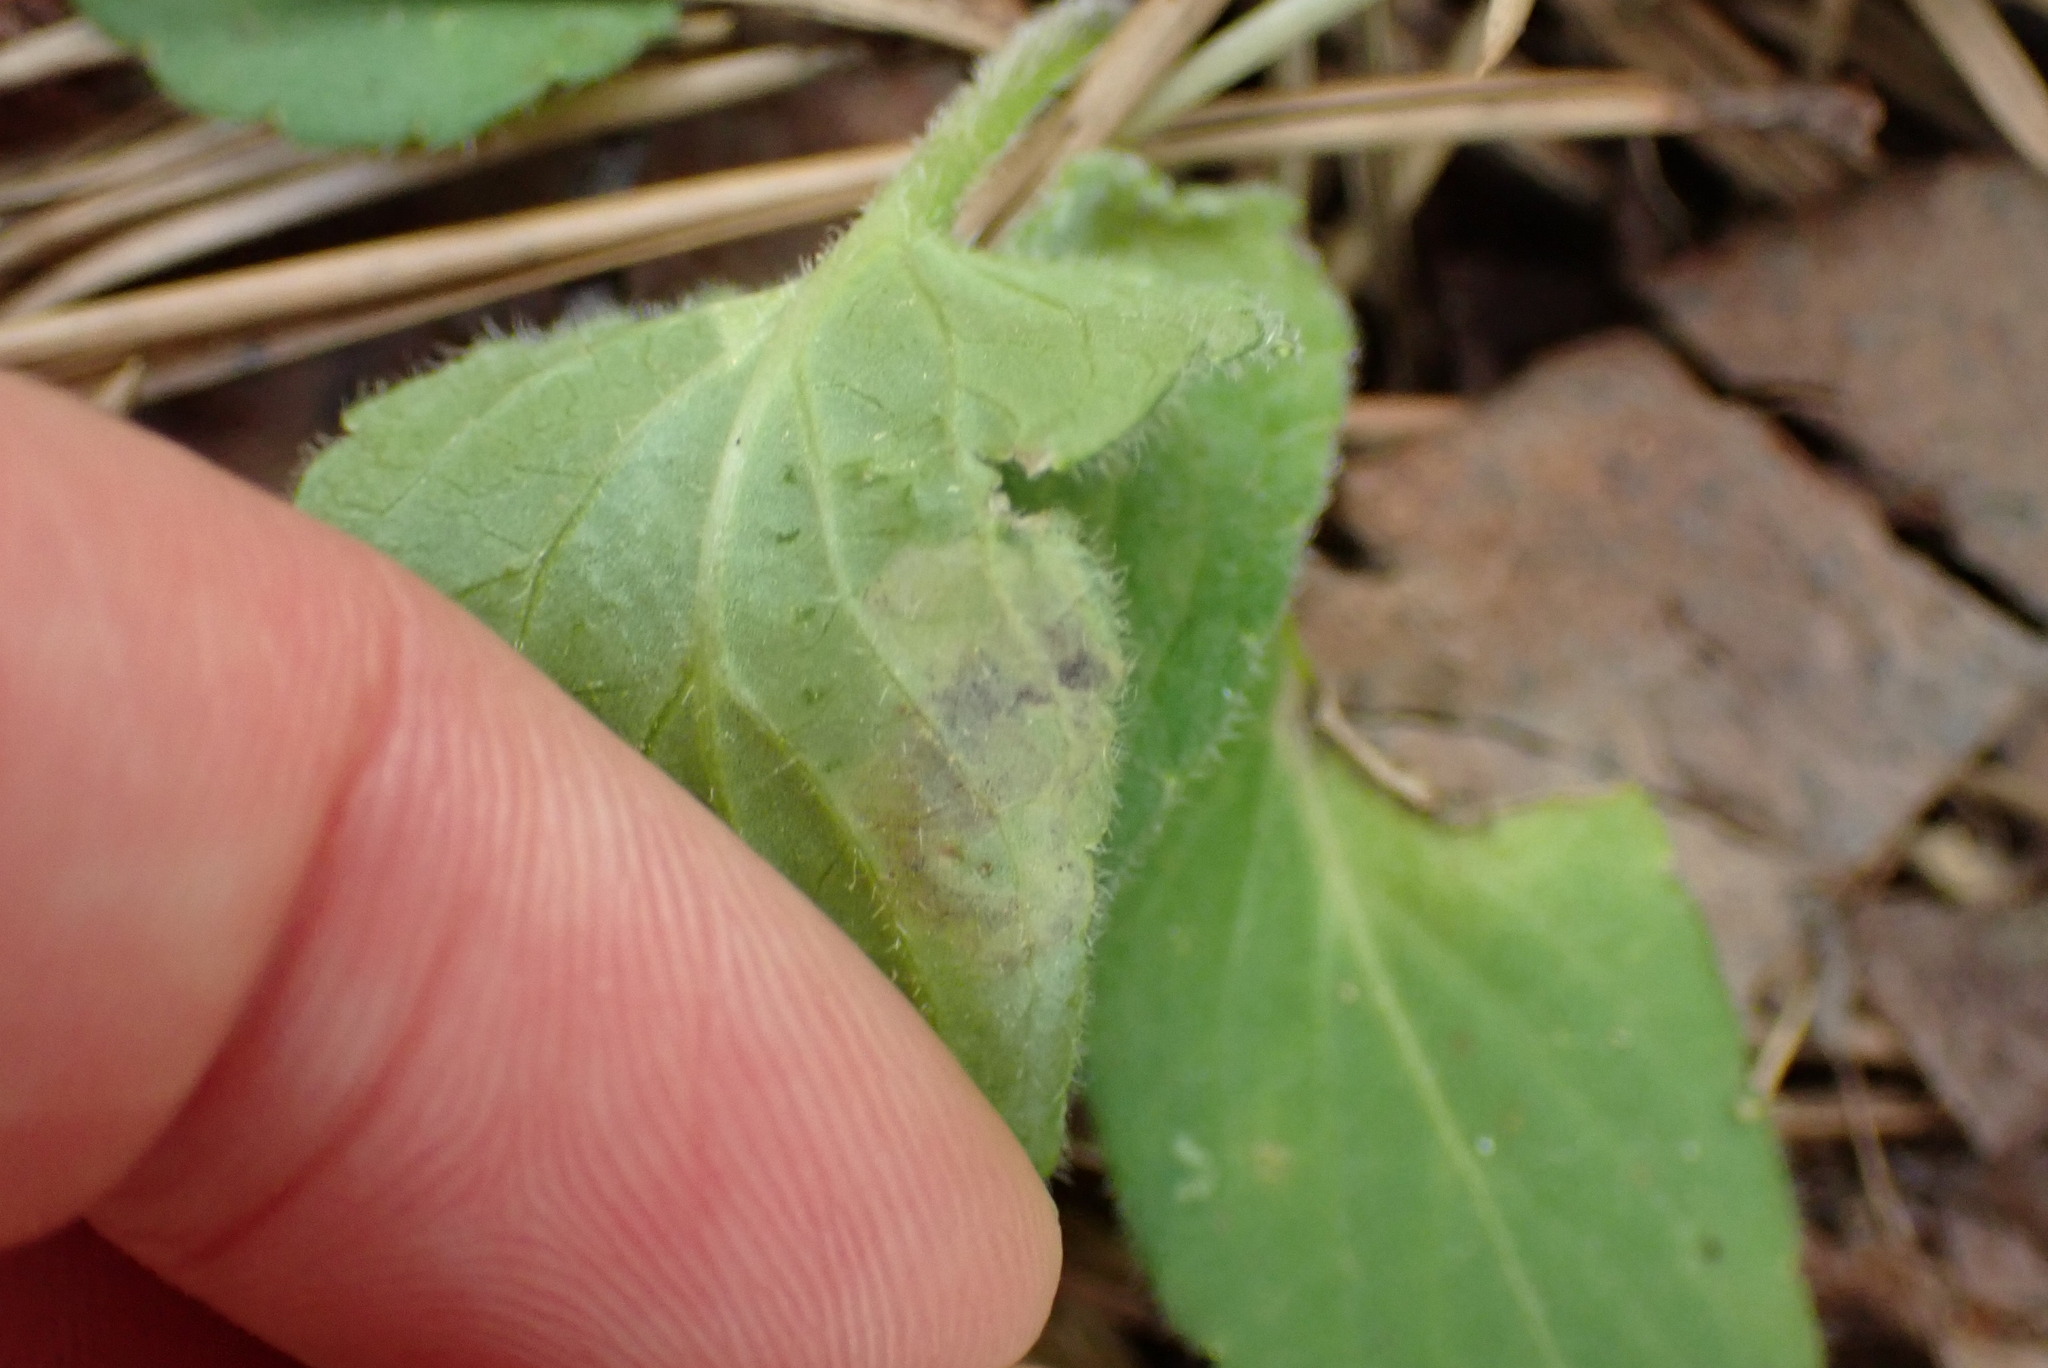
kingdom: Animalia
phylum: Arthropoda
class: Insecta
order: Hymenoptera
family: Tenthredinidae
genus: Nefusa
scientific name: Nefusa ambigua
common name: Violet leafmining sawfly
